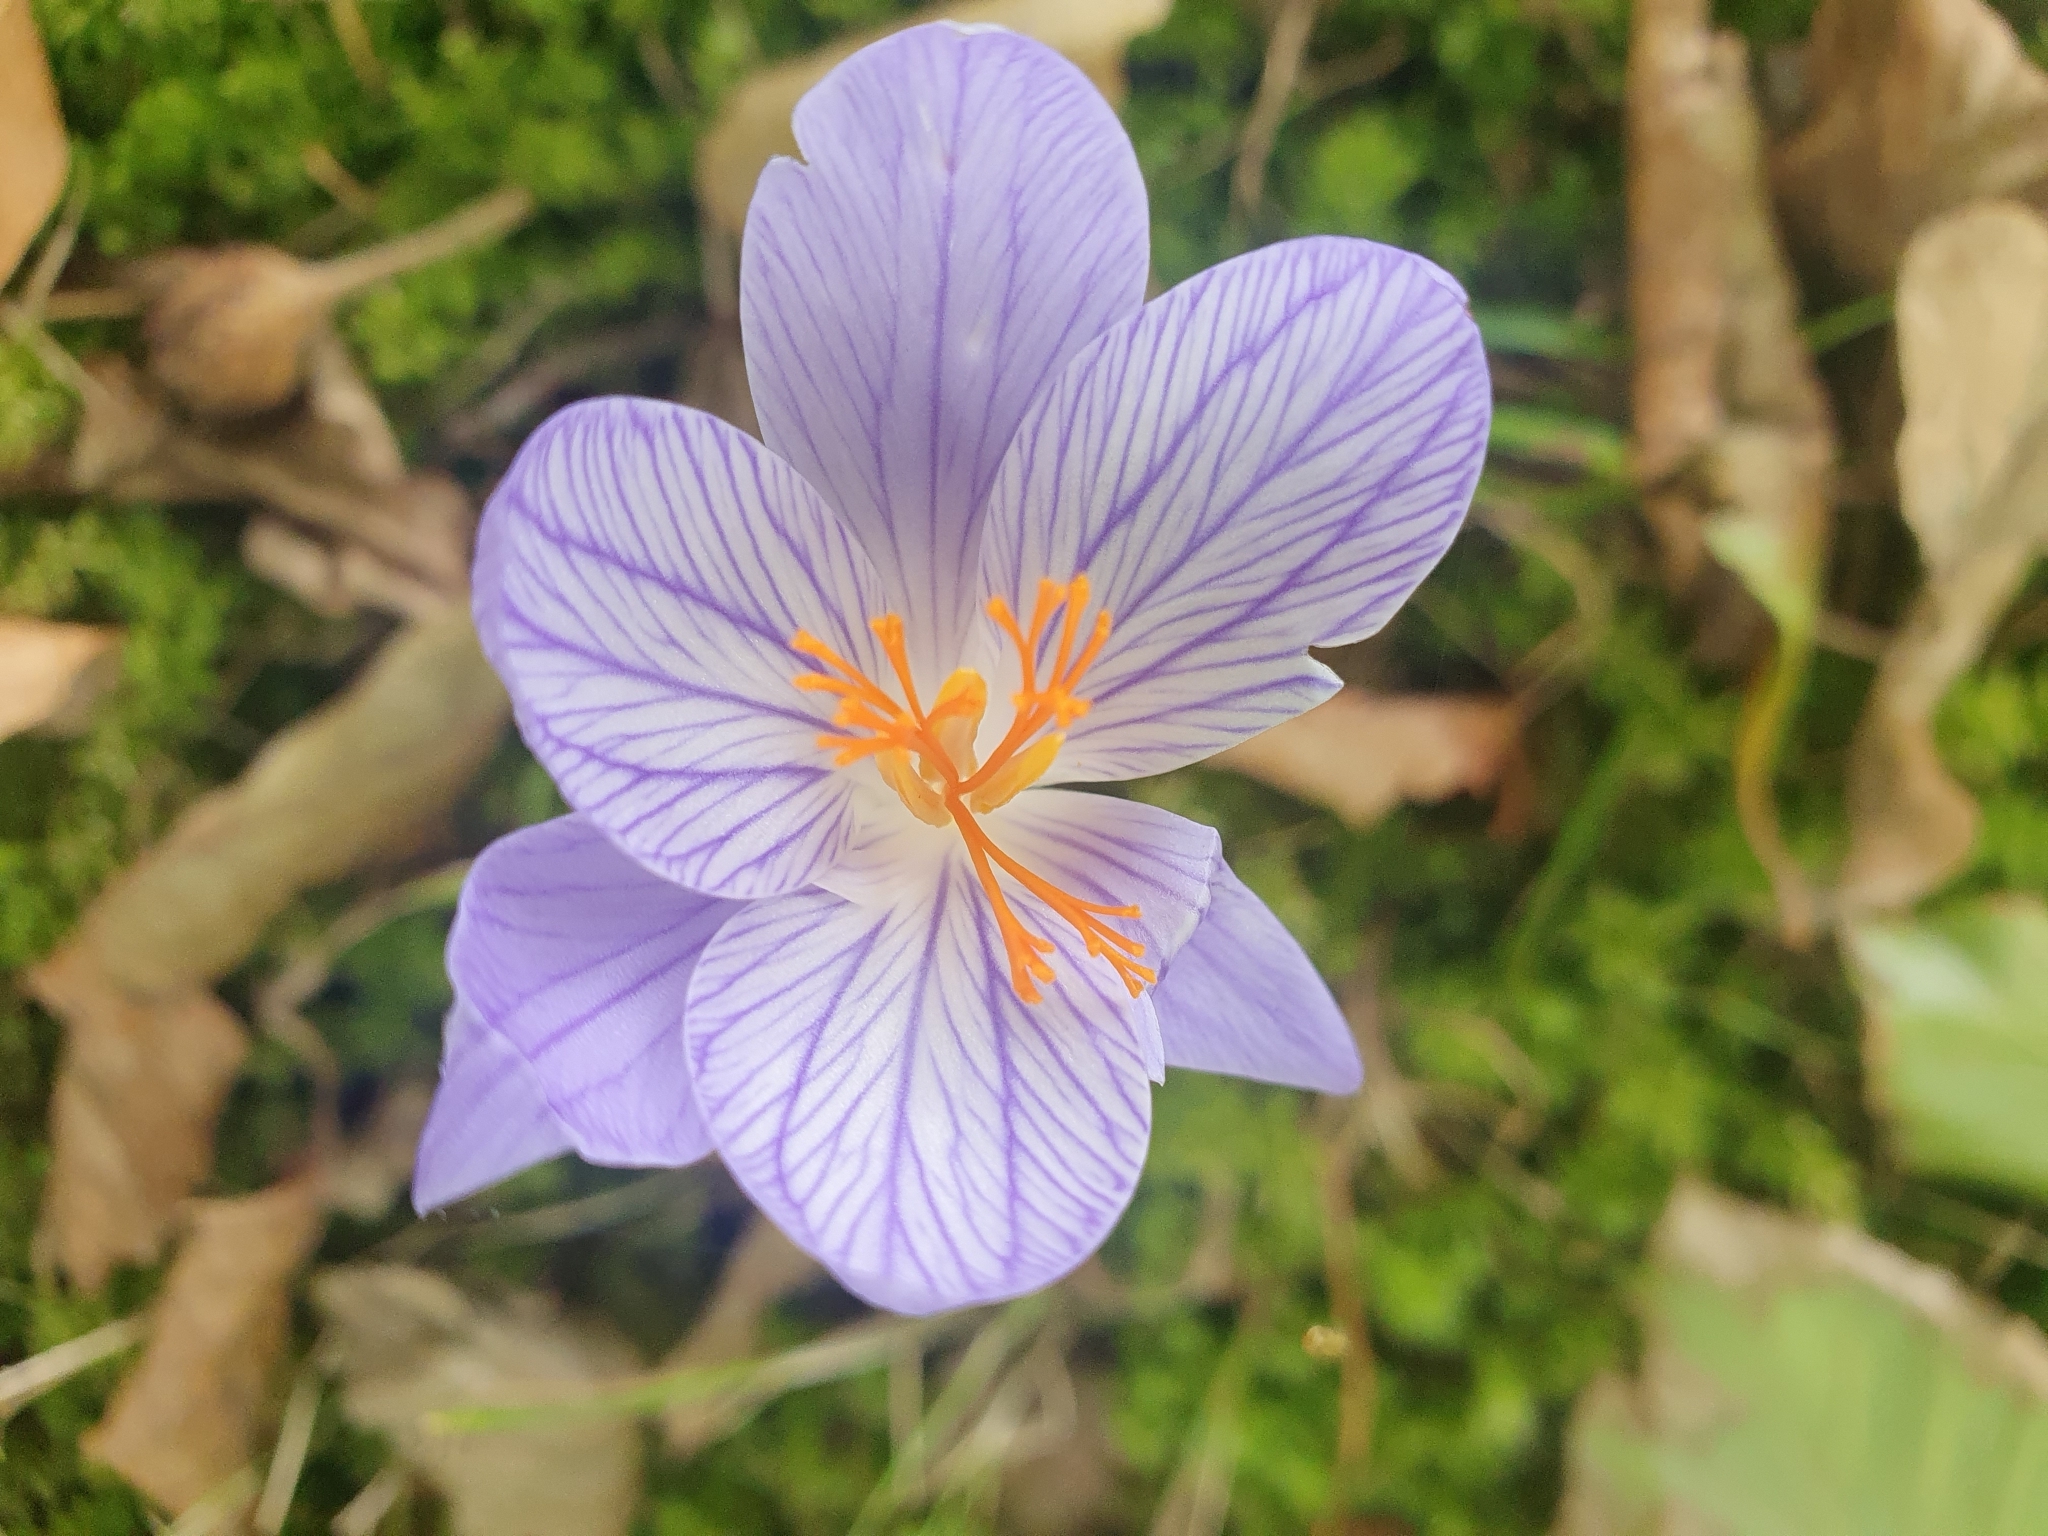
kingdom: Plantae
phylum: Tracheophyta
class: Liliopsida
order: Asparagales
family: Iridaceae
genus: Crocus
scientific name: Crocus speciosus
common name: Bieberstein's crocus
